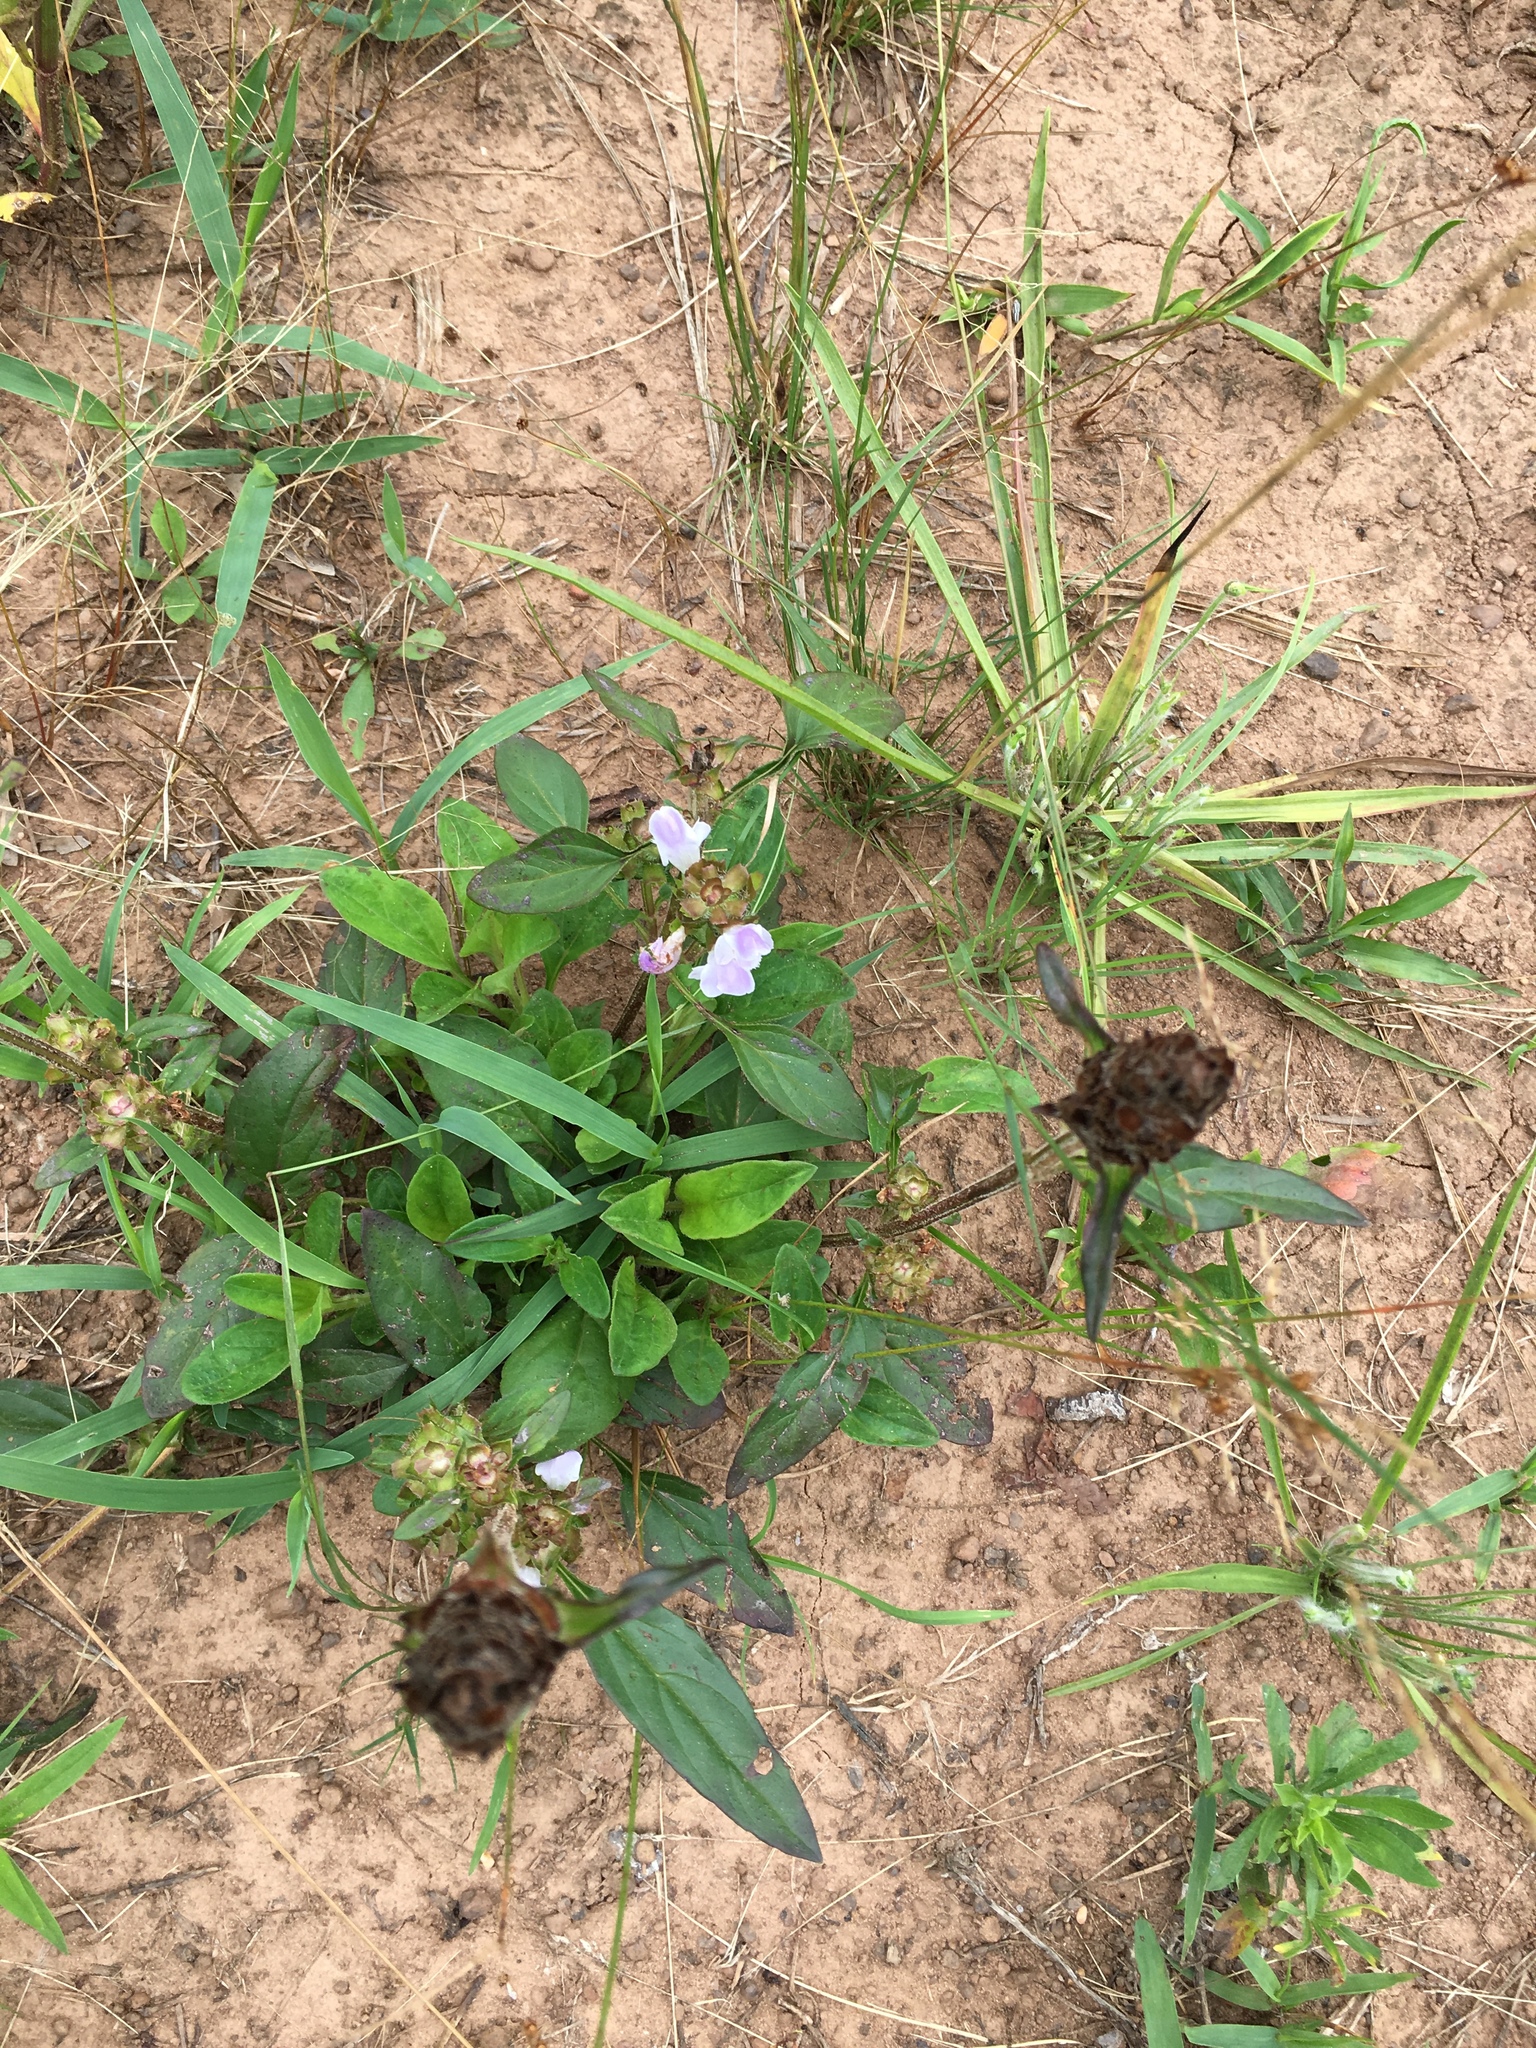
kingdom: Plantae
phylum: Tracheophyta
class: Magnoliopsida
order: Lamiales
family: Lamiaceae
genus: Prunella
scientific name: Prunella vulgaris
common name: Heal-all
